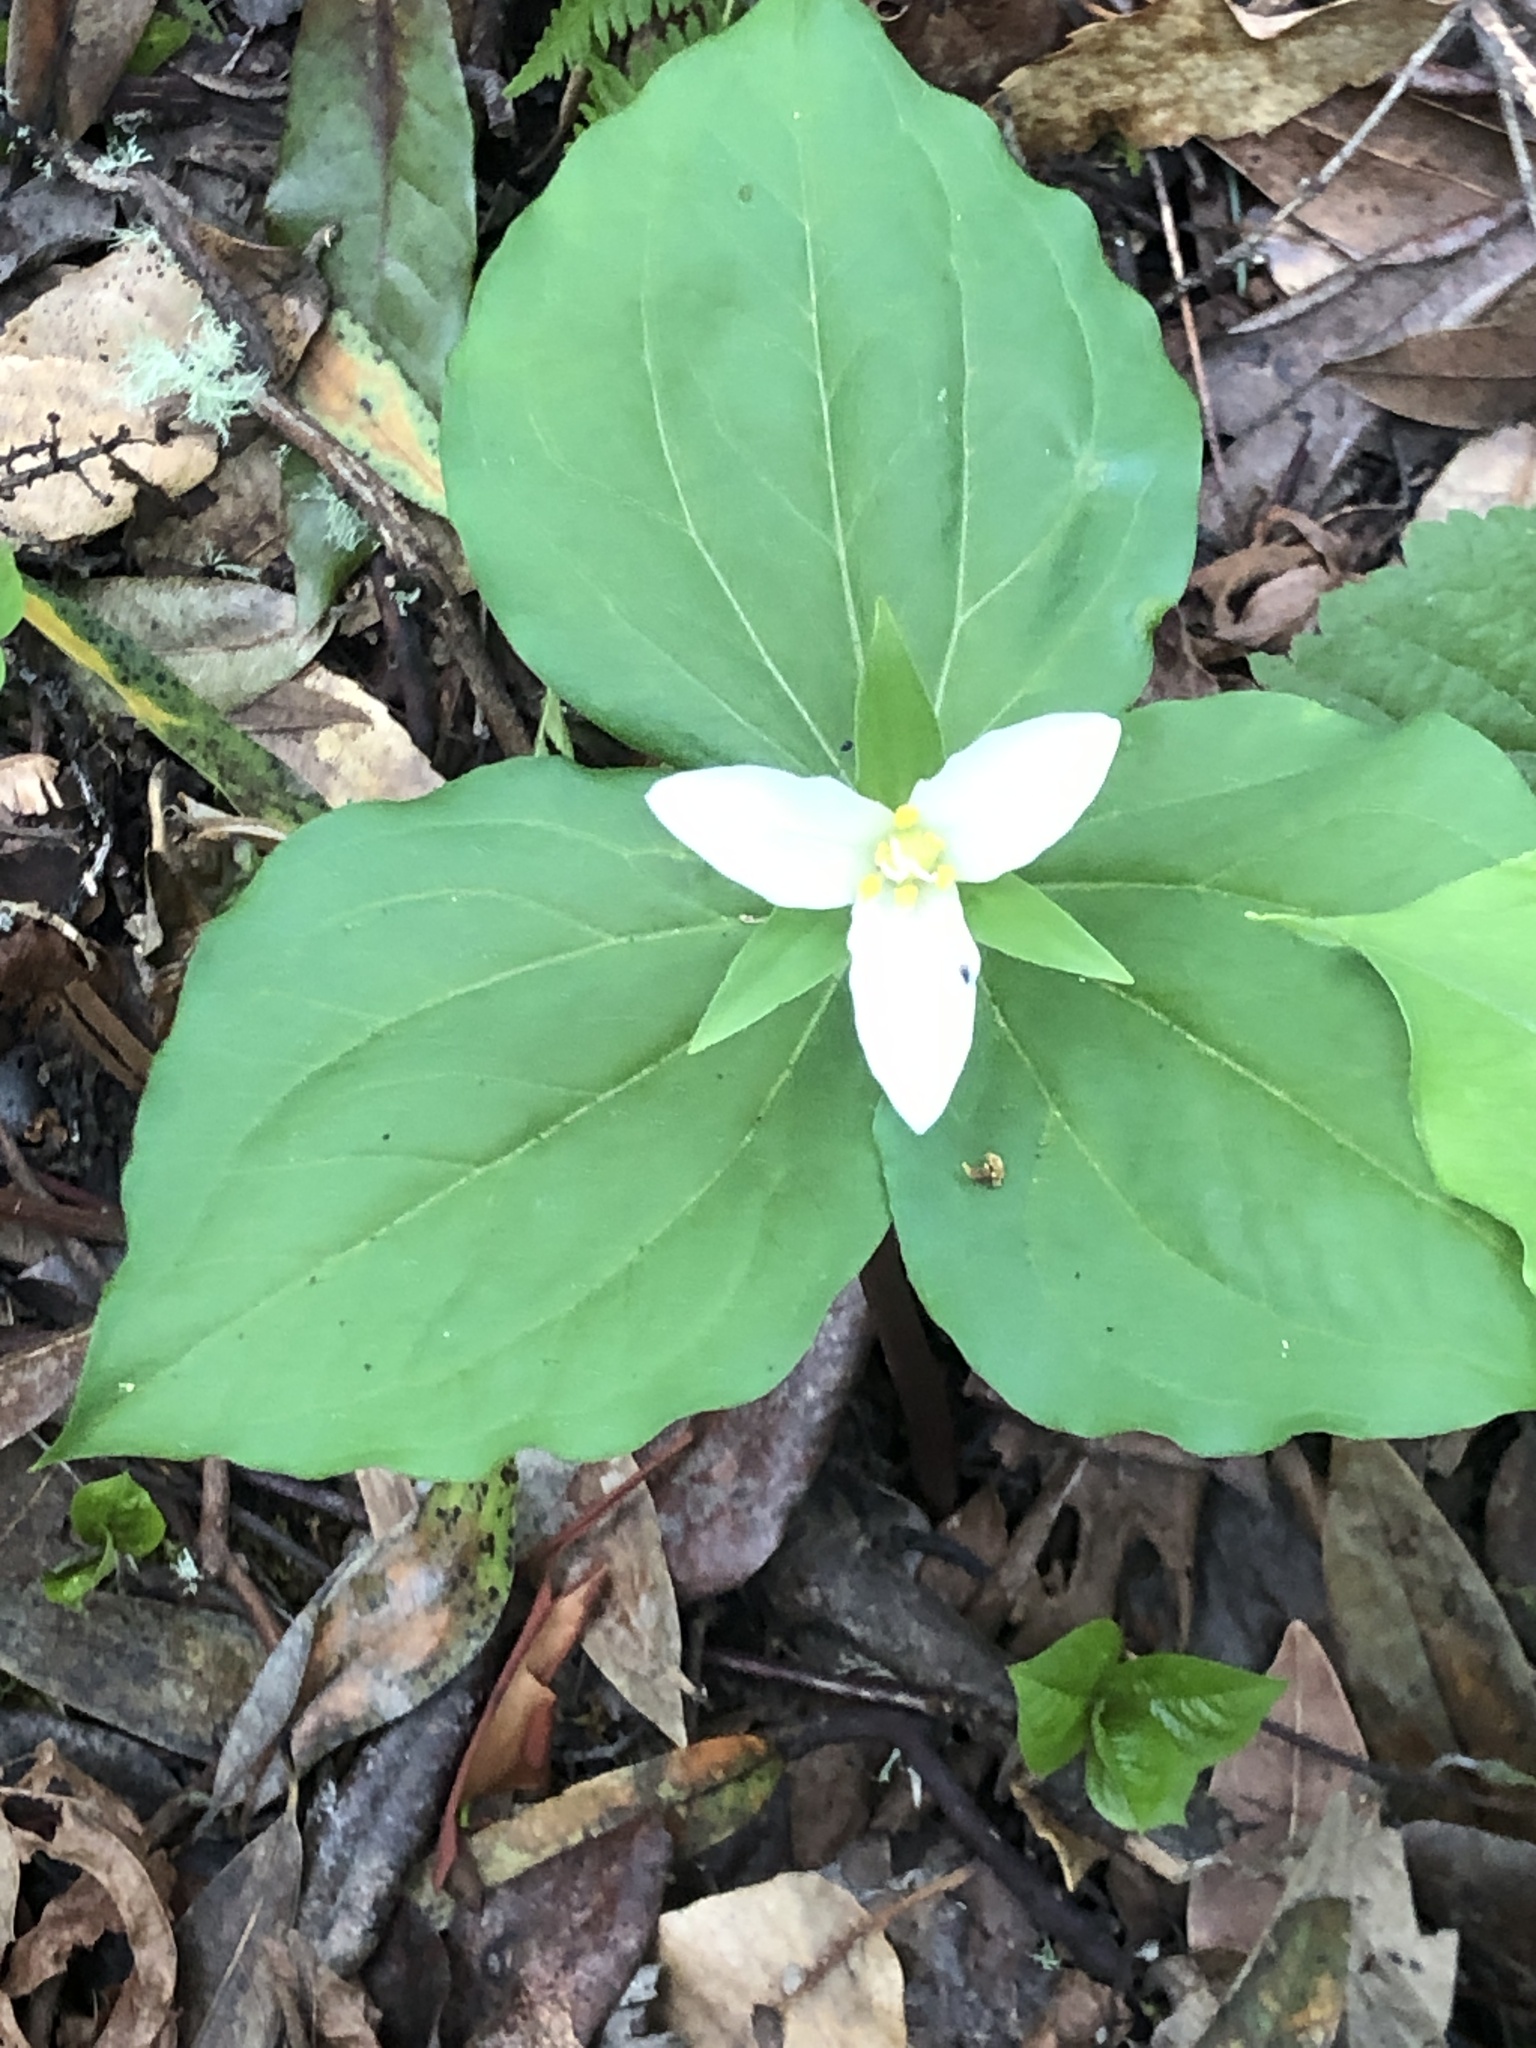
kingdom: Plantae
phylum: Tracheophyta
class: Liliopsida
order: Liliales
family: Melanthiaceae
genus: Trillium
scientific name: Trillium ovatum
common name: Pacific trillium
